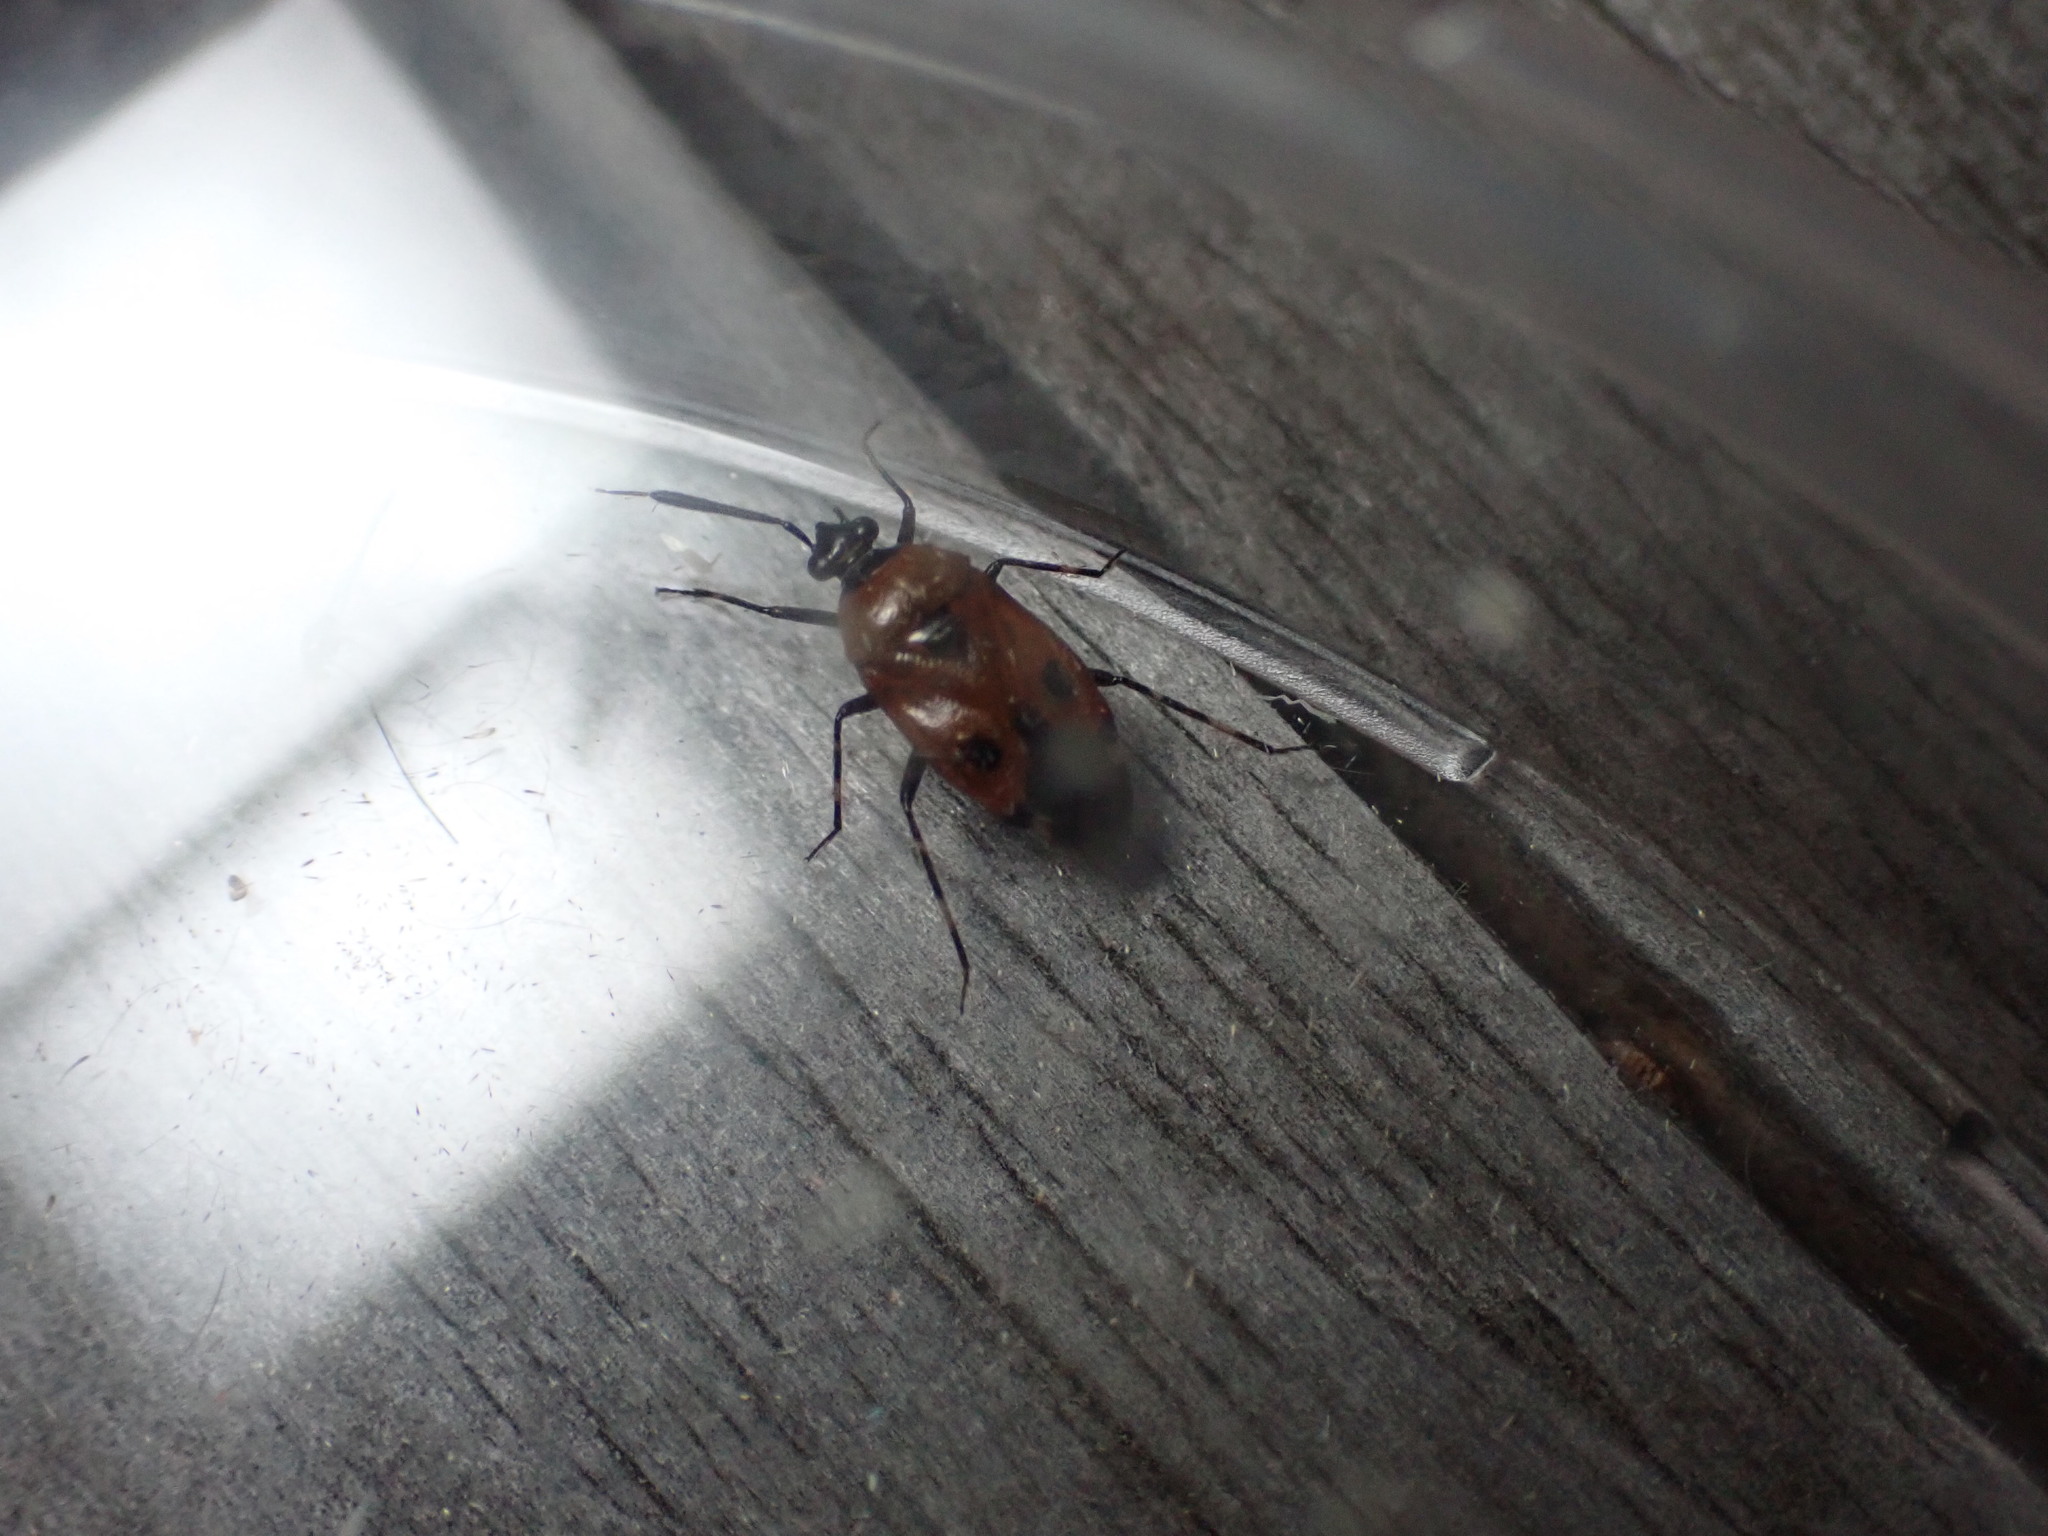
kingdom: Animalia
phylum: Arthropoda
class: Insecta
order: Hemiptera
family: Miridae
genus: Deraeocoris
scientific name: Deraeocoris punctum
